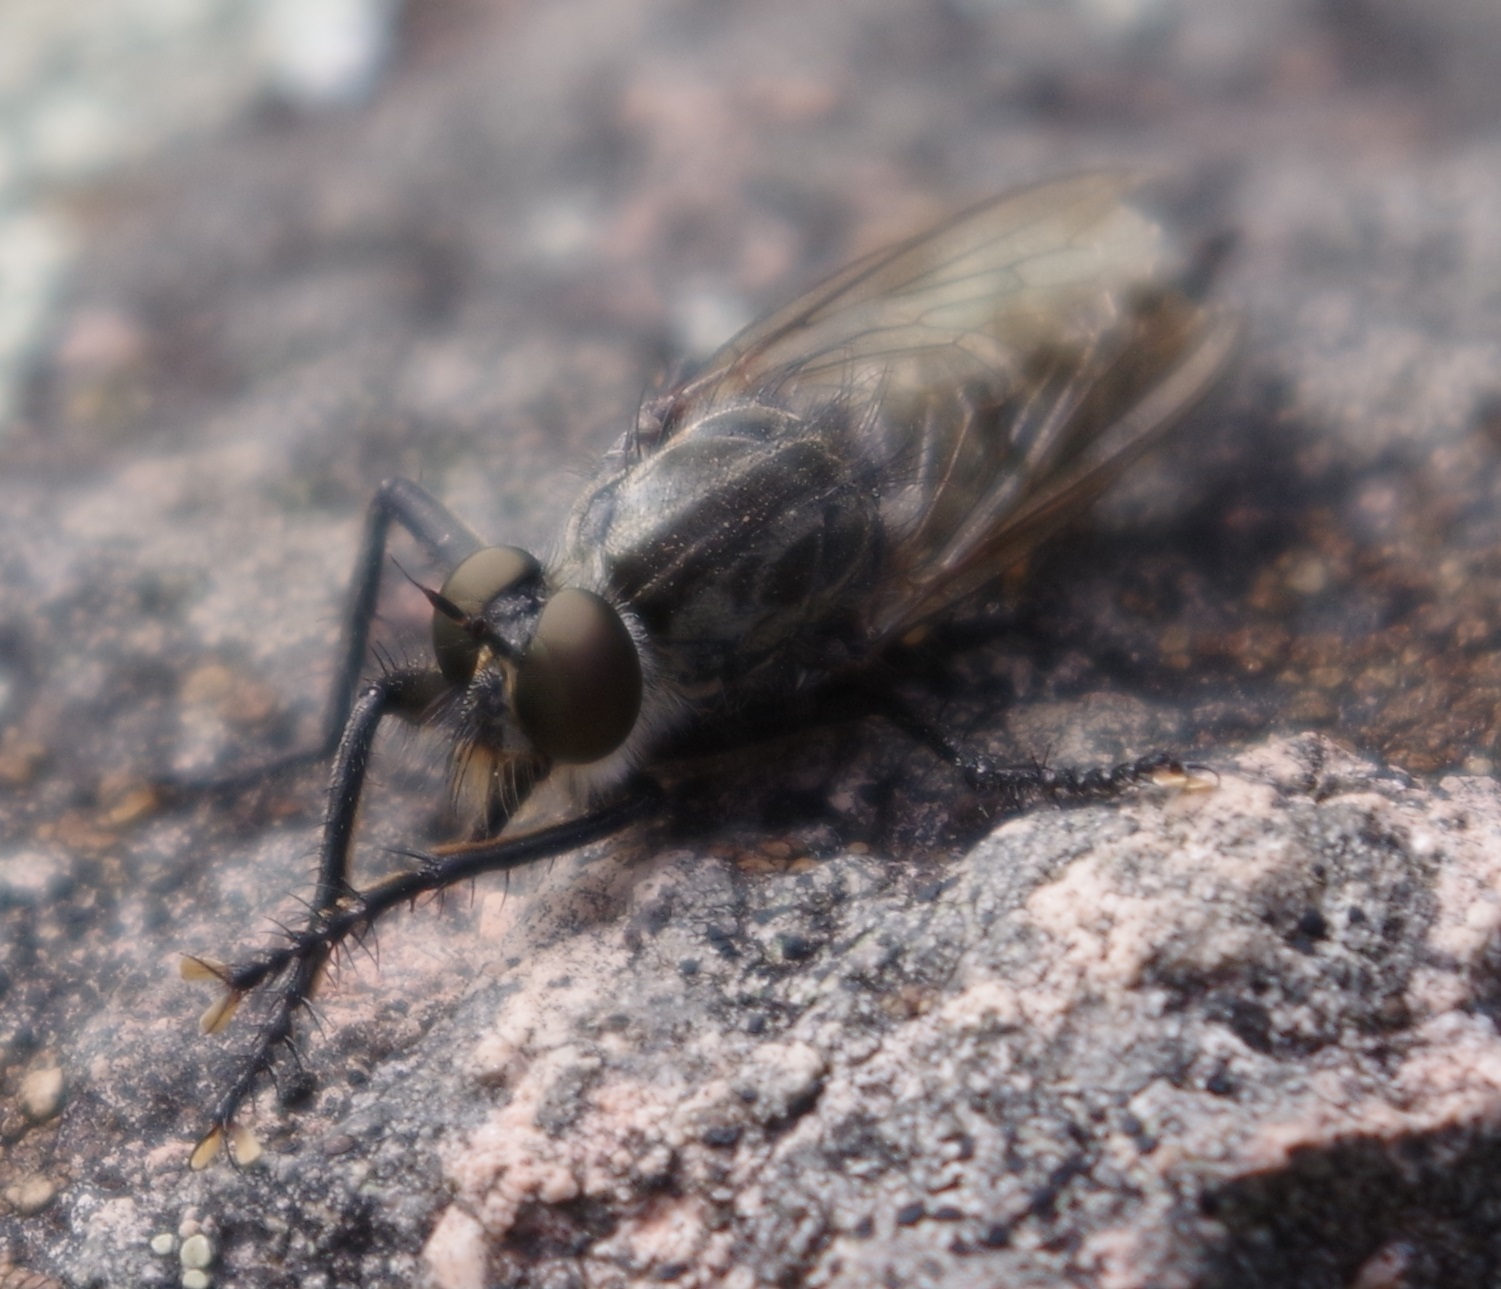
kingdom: Animalia
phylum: Arthropoda
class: Insecta
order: Diptera
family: Asilidae
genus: Machimus
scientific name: Machimus setibarbus
